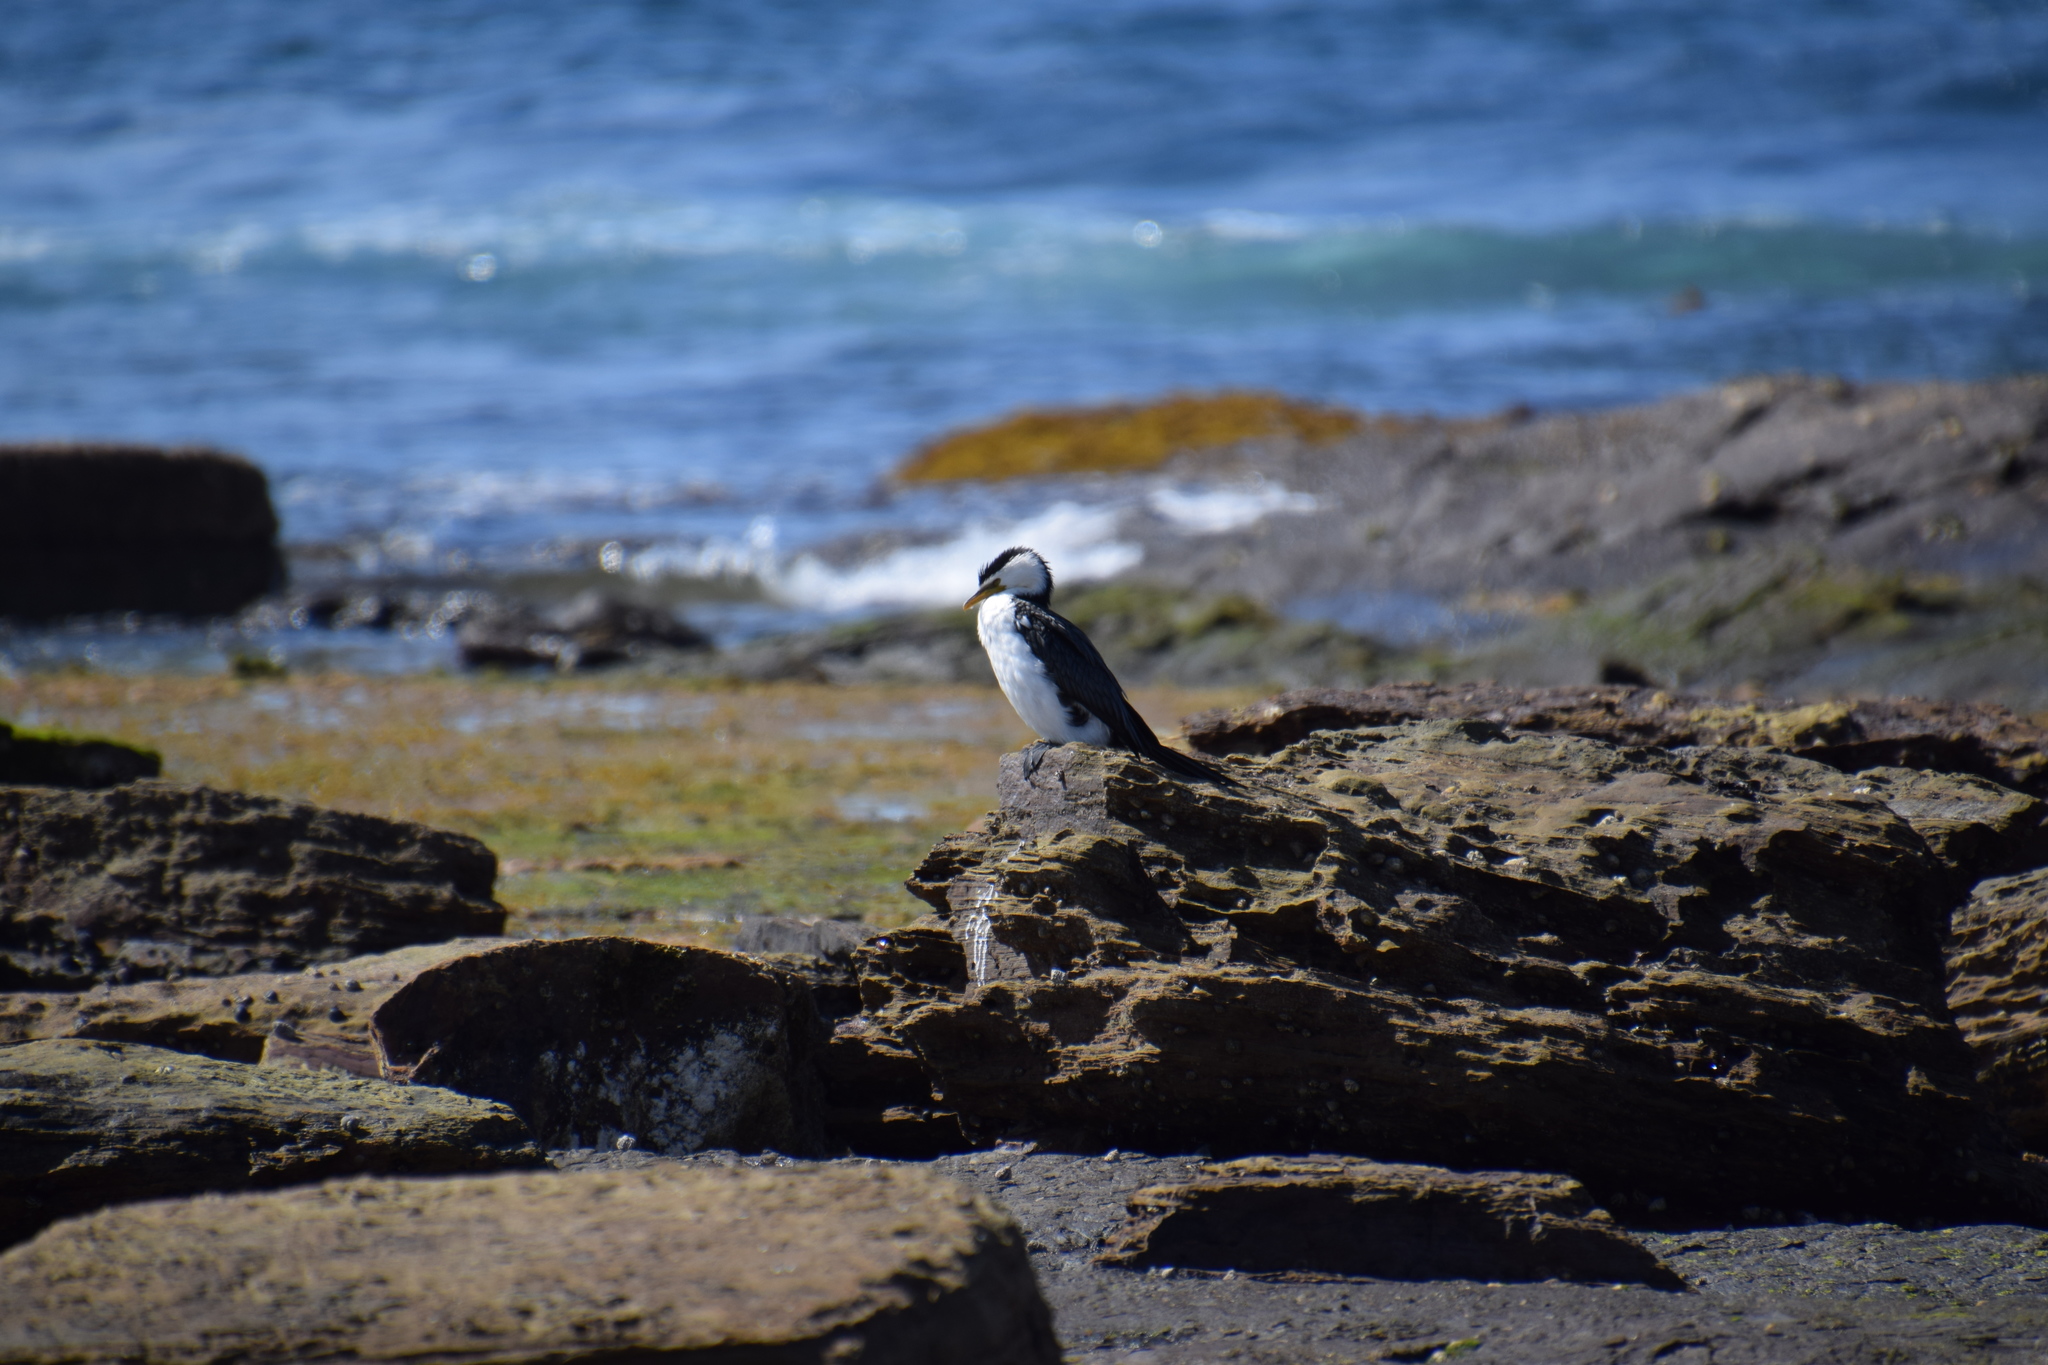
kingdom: Animalia
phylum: Chordata
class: Aves
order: Suliformes
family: Phalacrocoracidae
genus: Microcarbo
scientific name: Microcarbo melanoleucos
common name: Little pied cormorant
